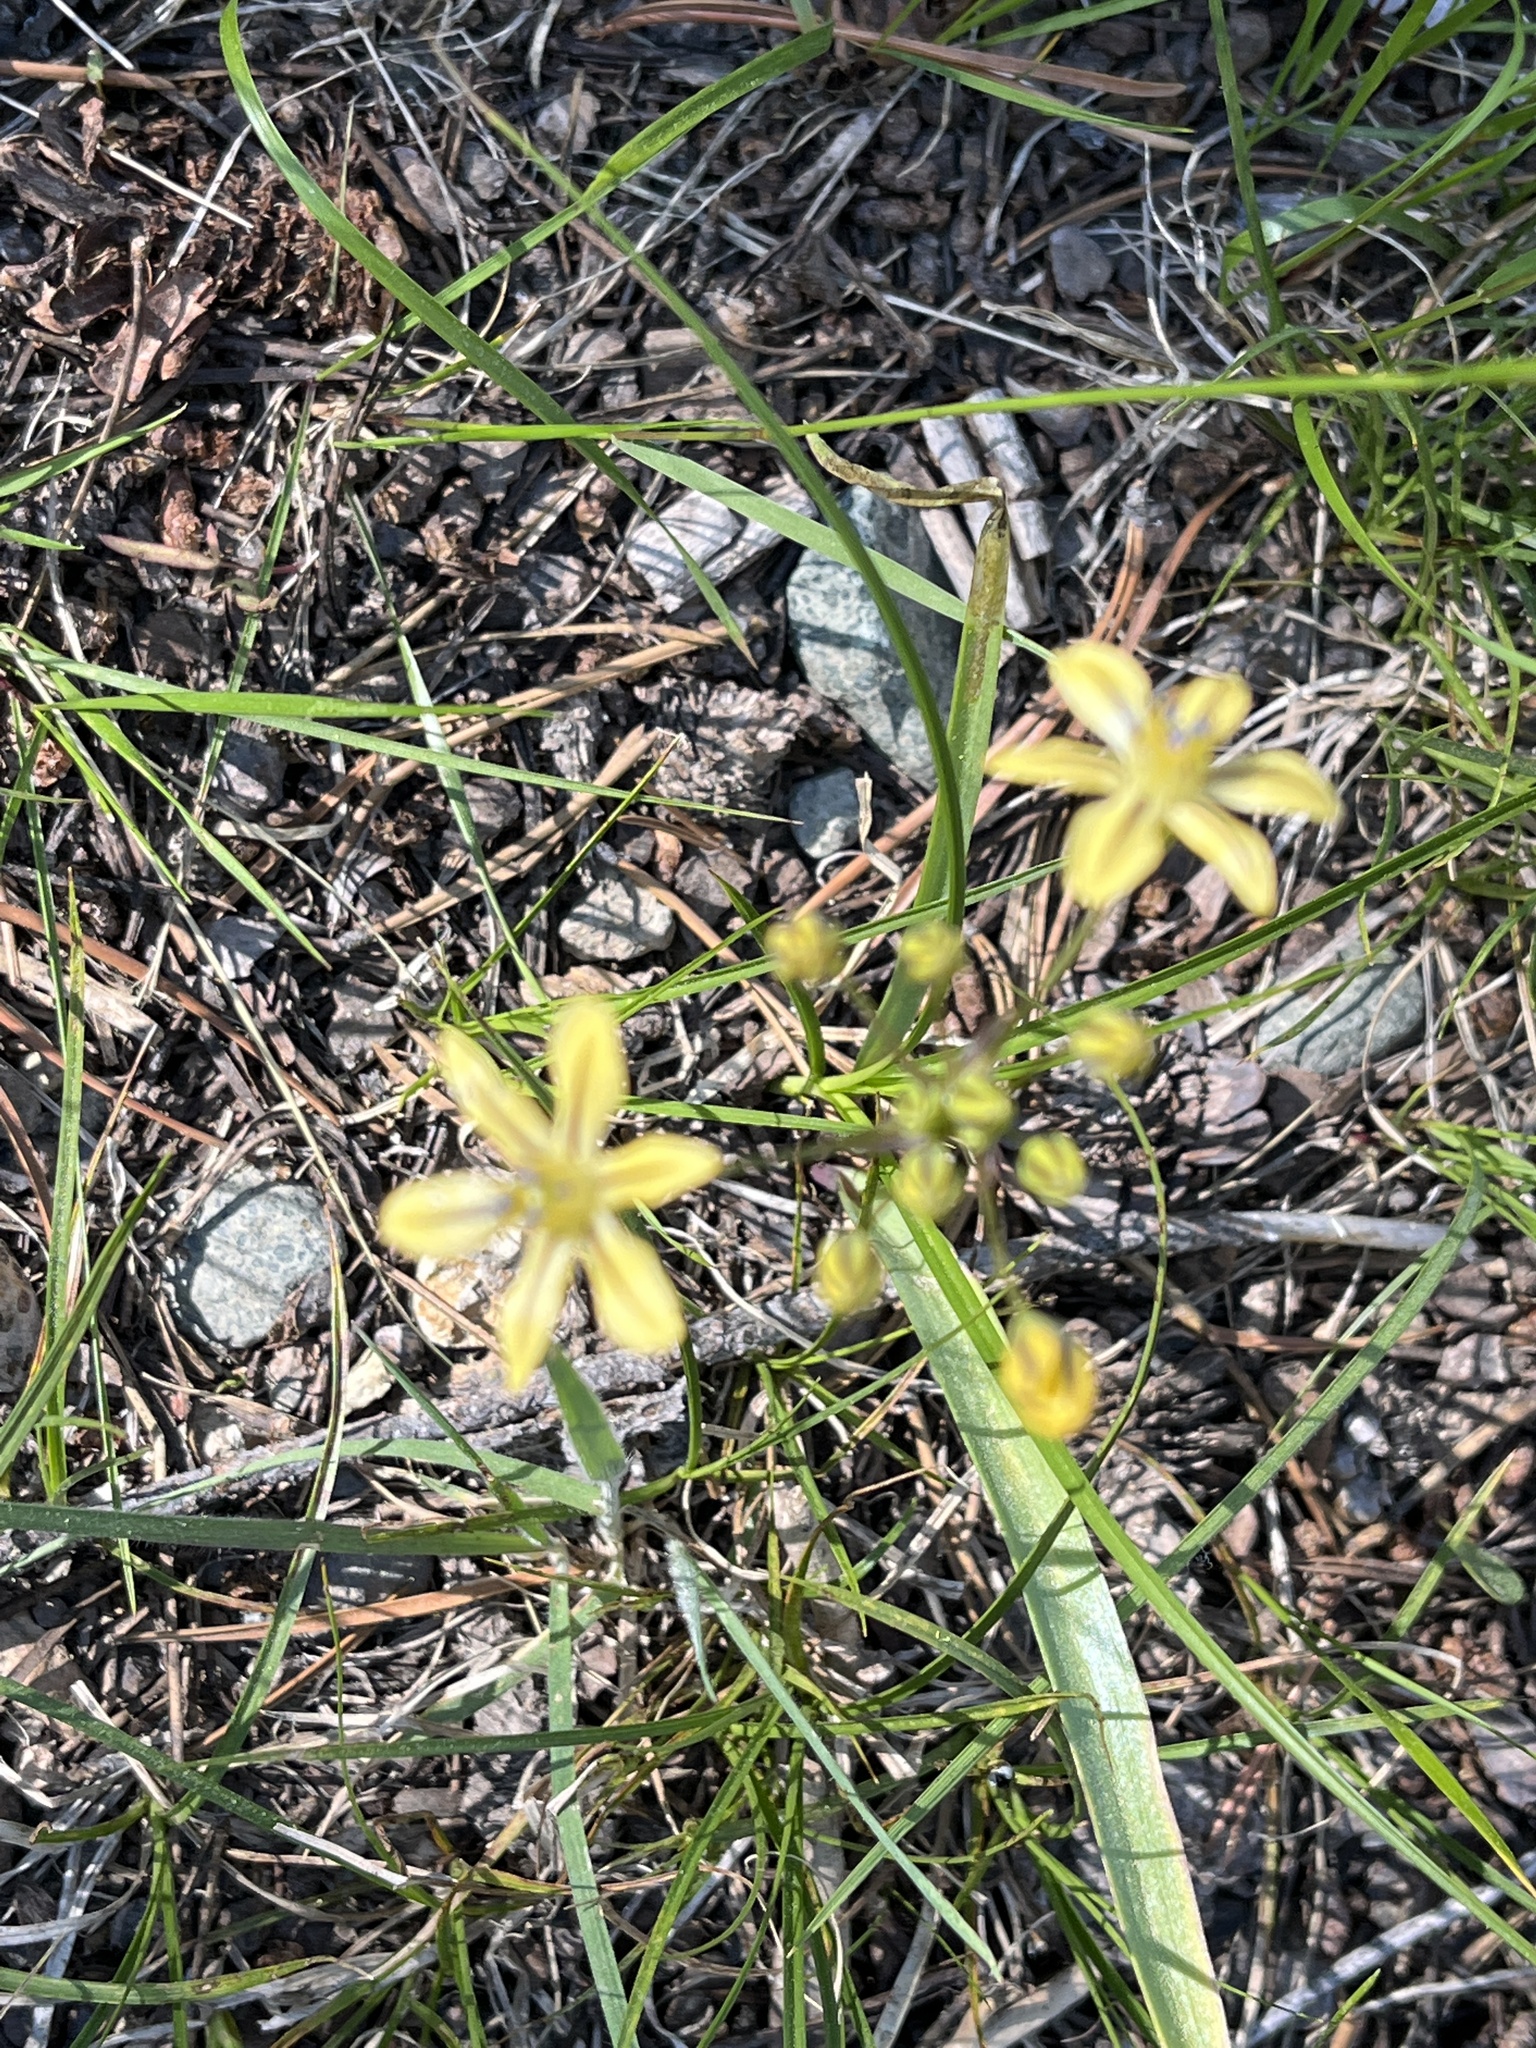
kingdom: Plantae
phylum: Tracheophyta
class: Liliopsida
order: Asparagales
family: Asparagaceae
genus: Triteleia
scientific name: Triteleia ixioides
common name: Yellow-brodiaea
